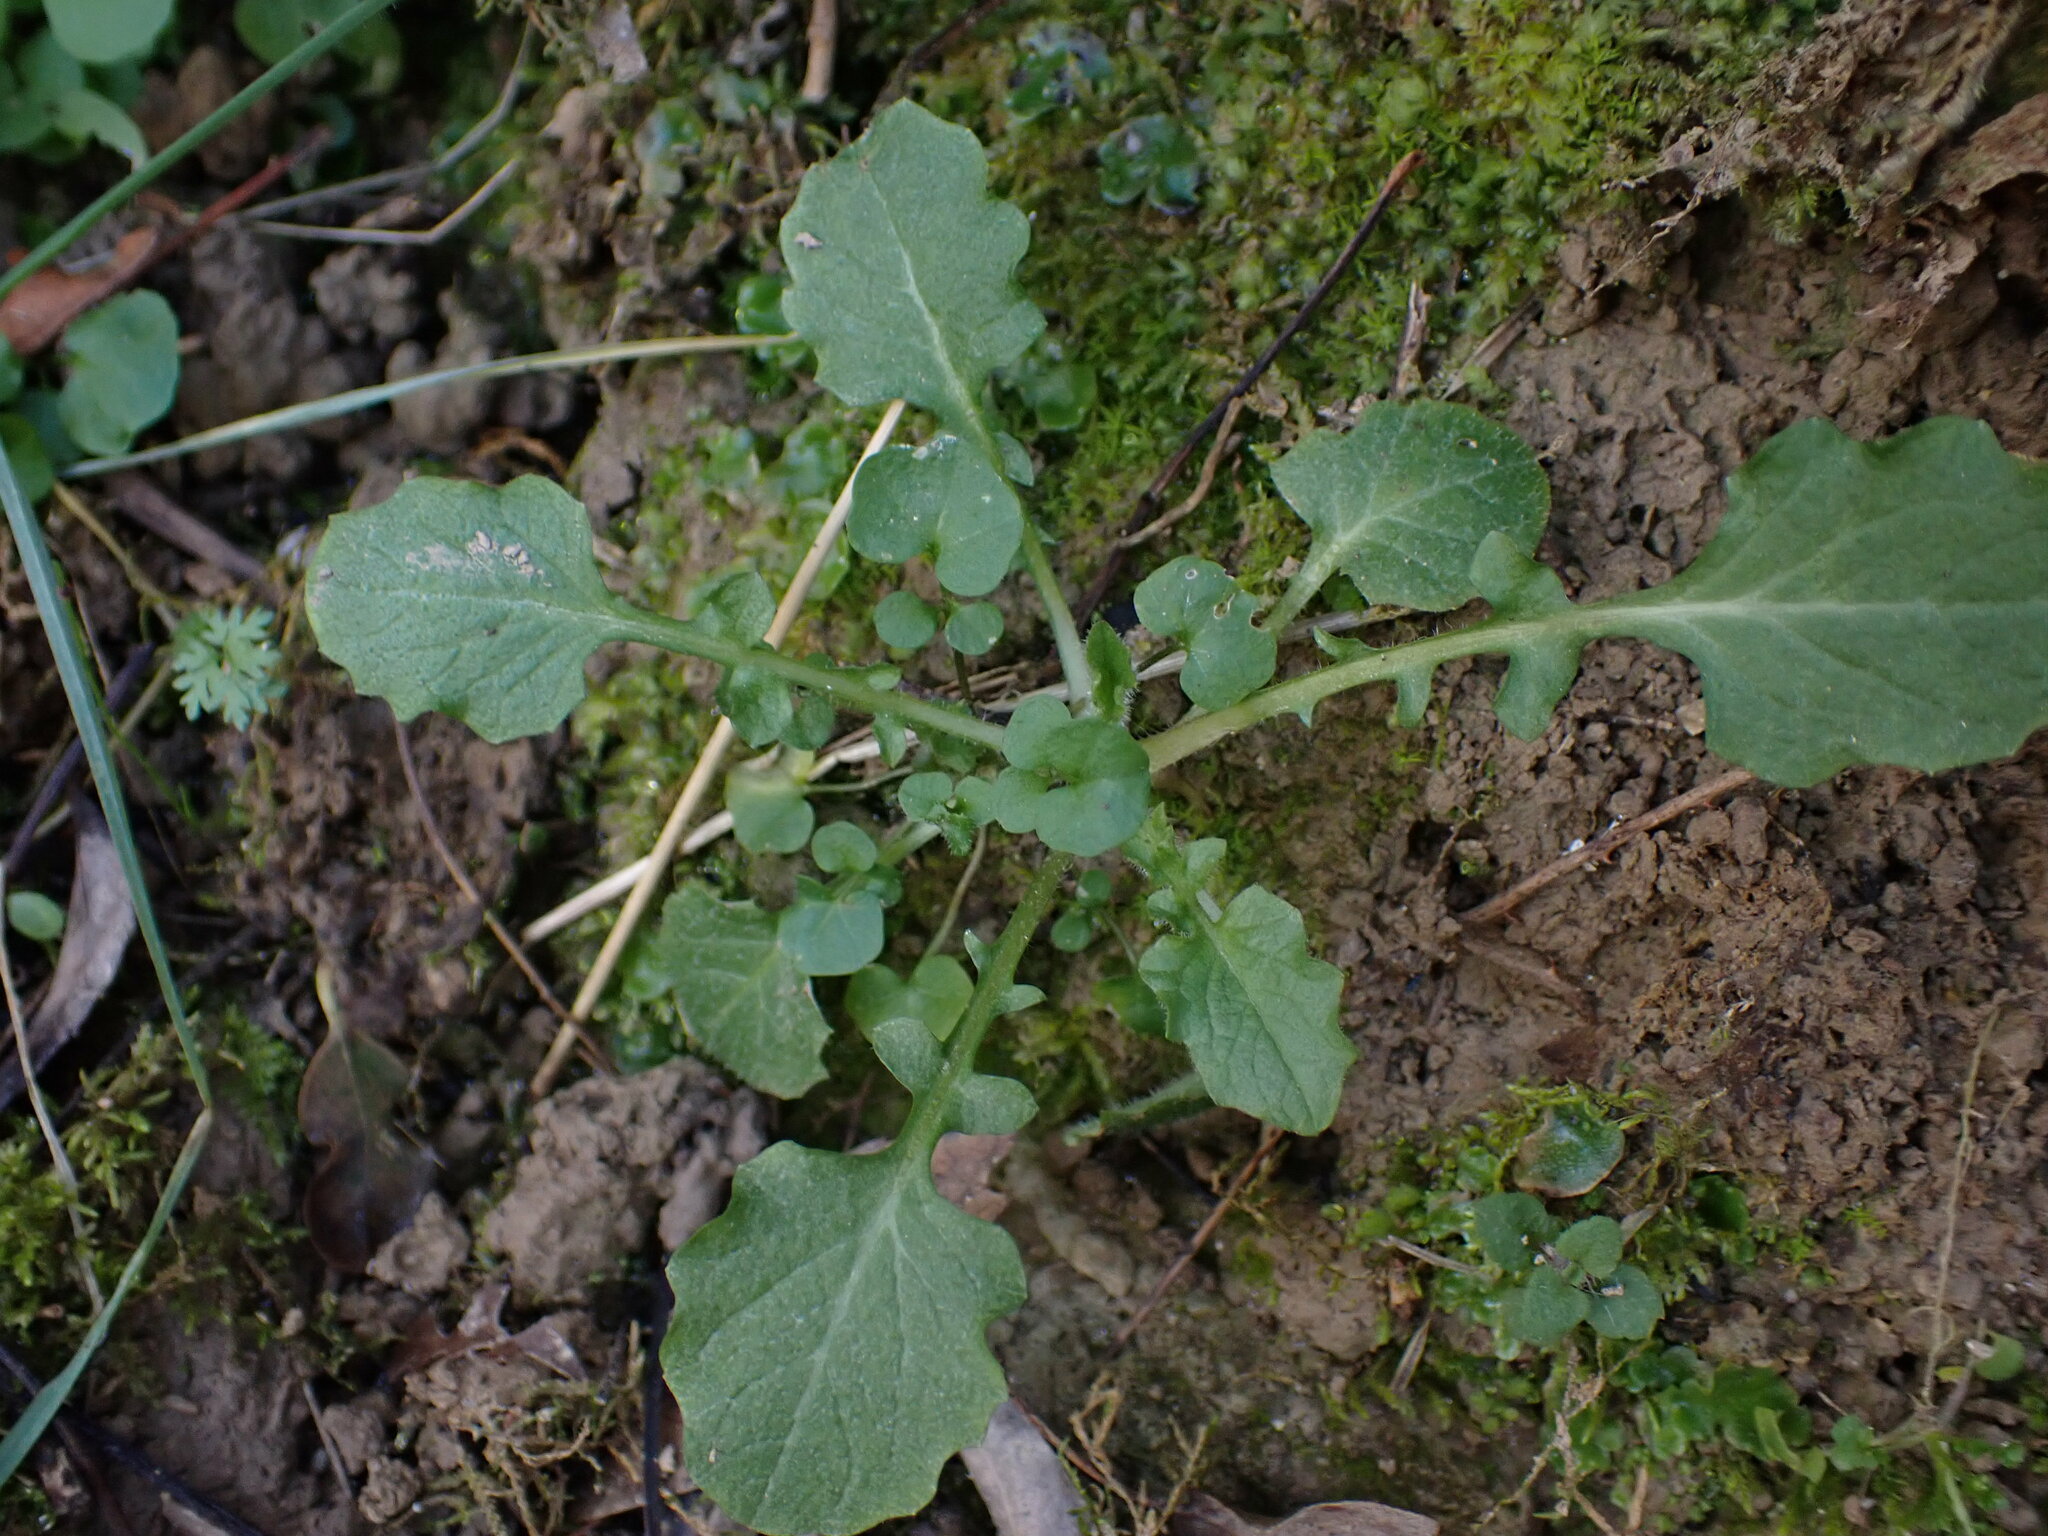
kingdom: Plantae
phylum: Tracheophyta
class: Magnoliopsida
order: Asterales
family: Asteraceae
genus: Lapsana
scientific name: Lapsana communis
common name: Nipplewort
